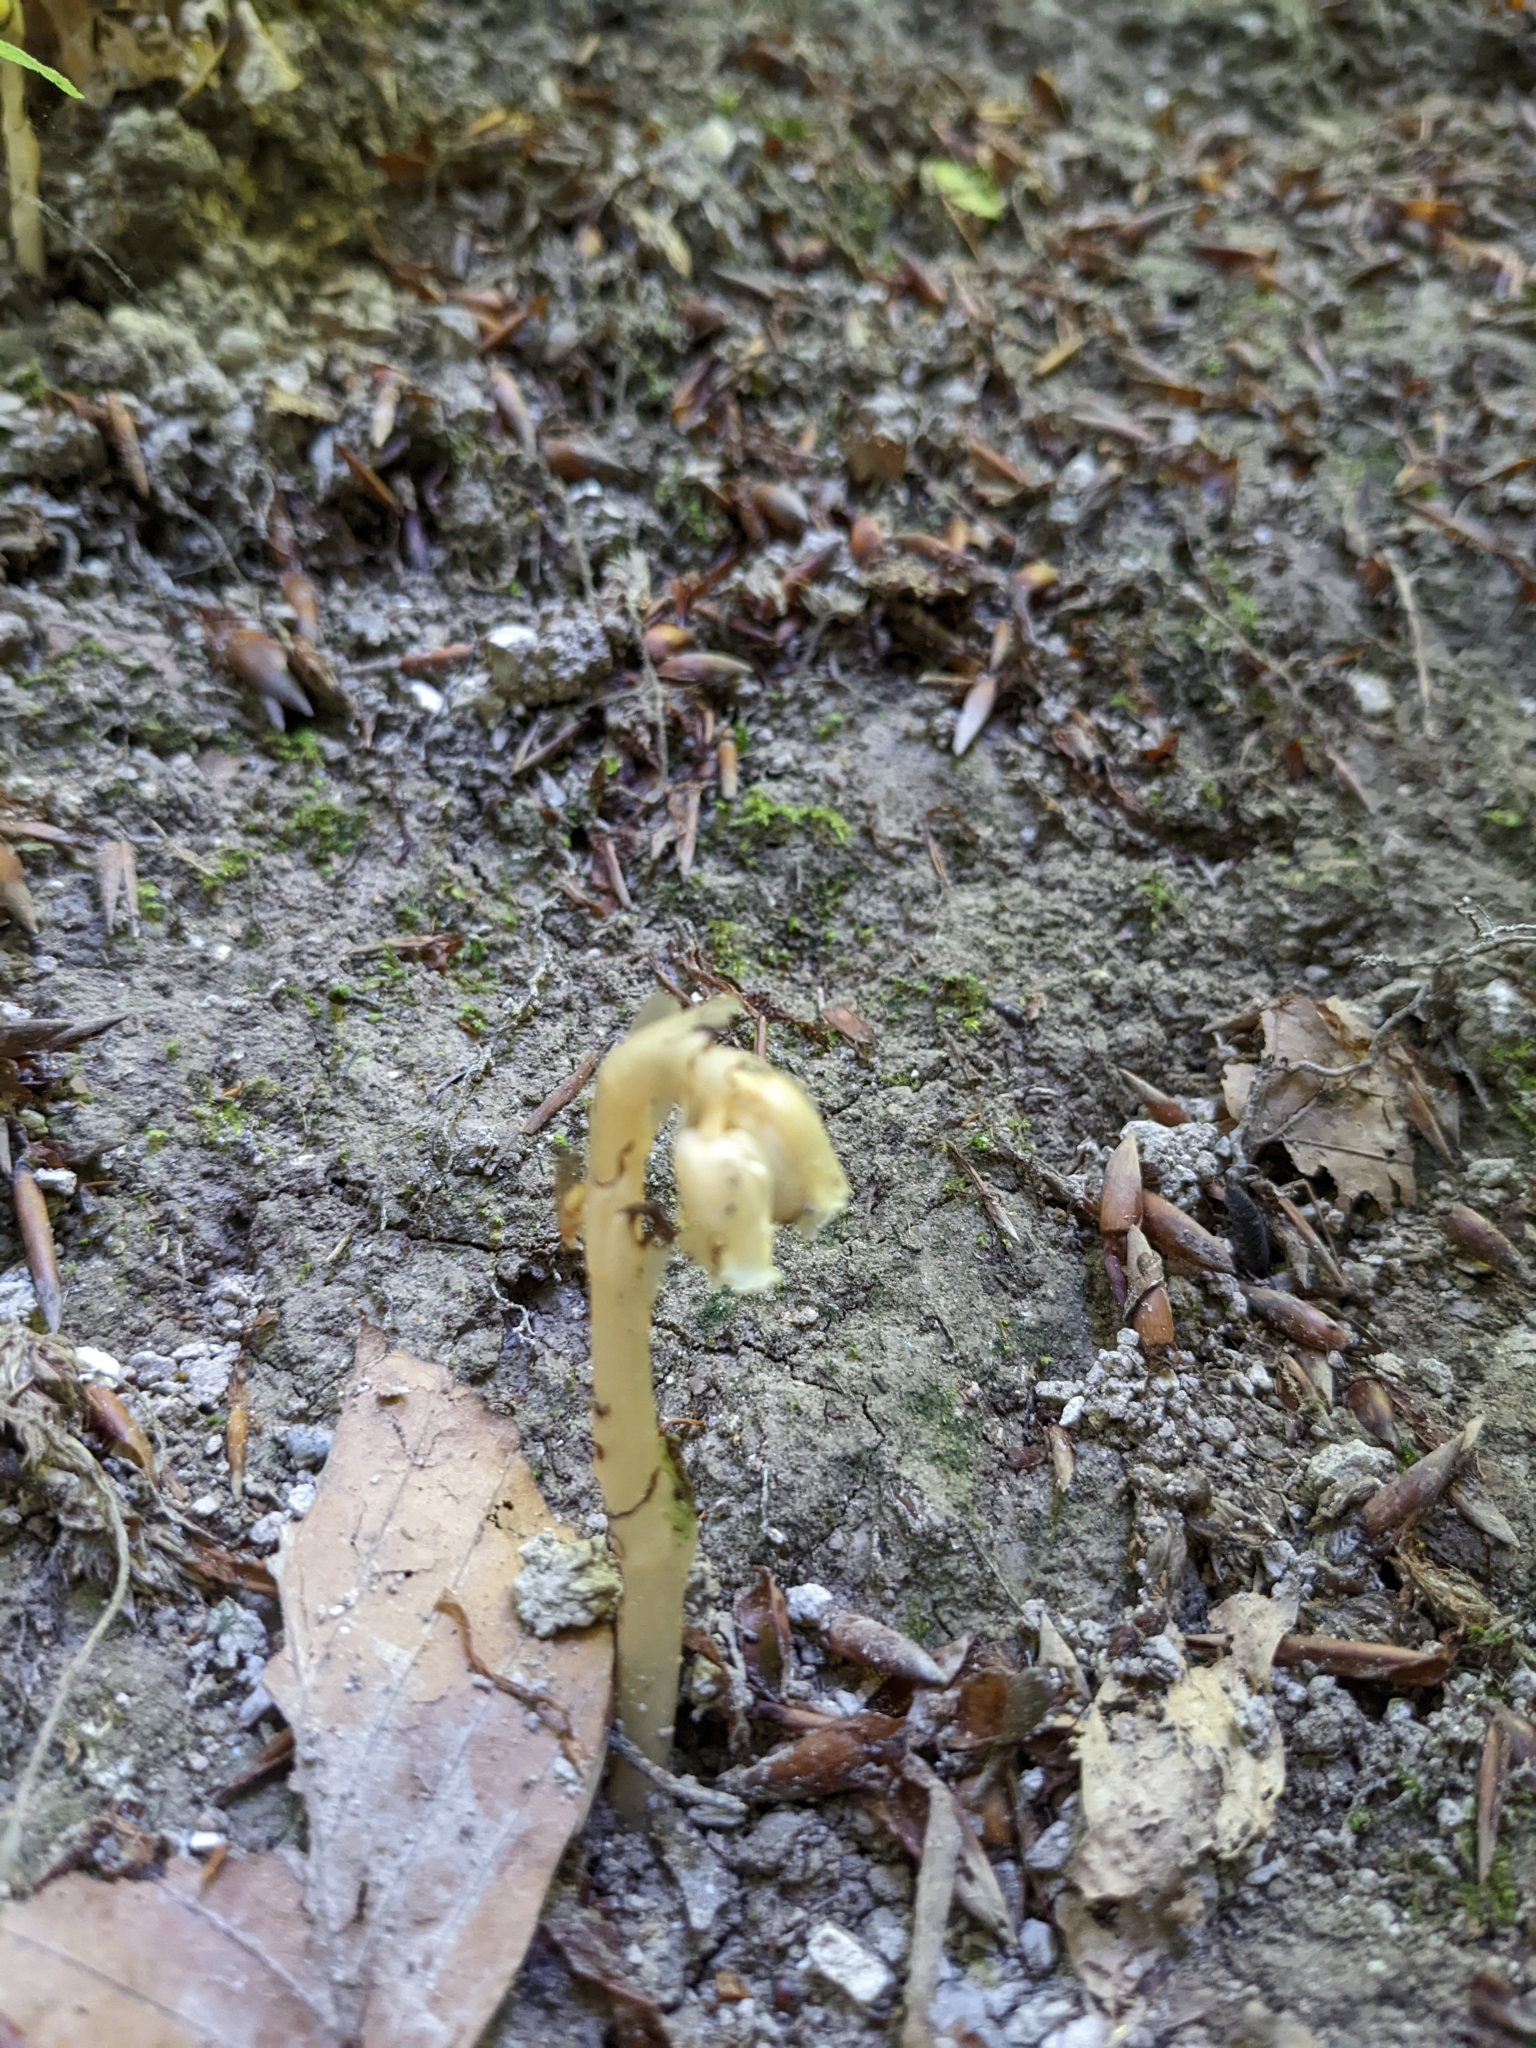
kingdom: Plantae
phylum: Tracheophyta
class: Magnoliopsida
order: Ericales
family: Ericaceae
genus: Hypopitys
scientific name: Hypopitys monotropa
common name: Yellow bird's-nest
